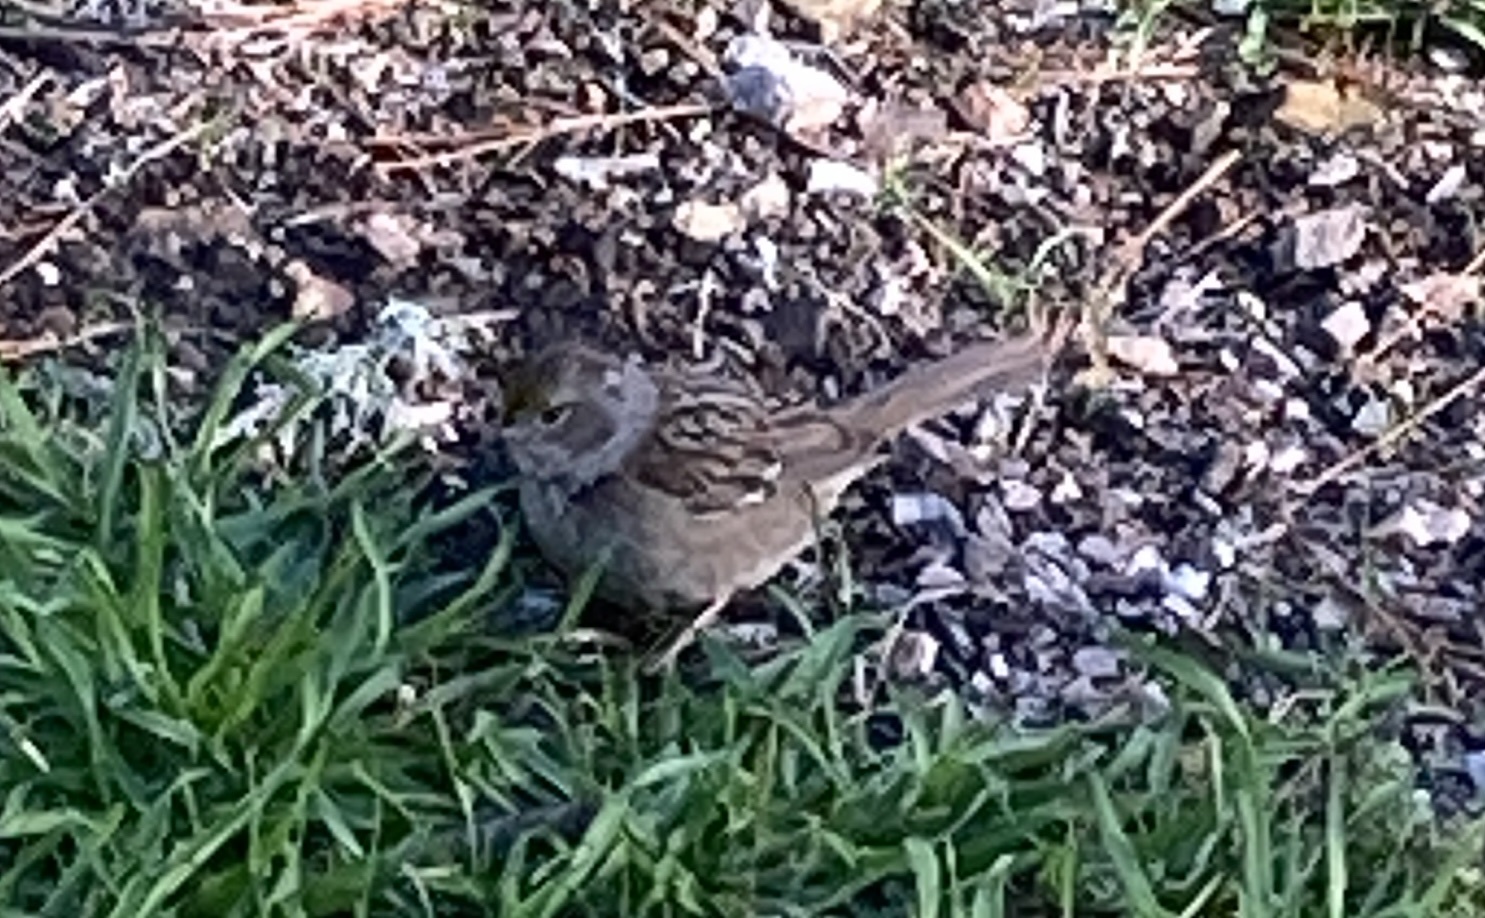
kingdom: Animalia
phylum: Chordata
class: Aves
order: Passeriformes
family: Passerellidae
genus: Zonotrichia
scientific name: Zonotrichia atricapilla
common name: Golden-crowned sparrow
